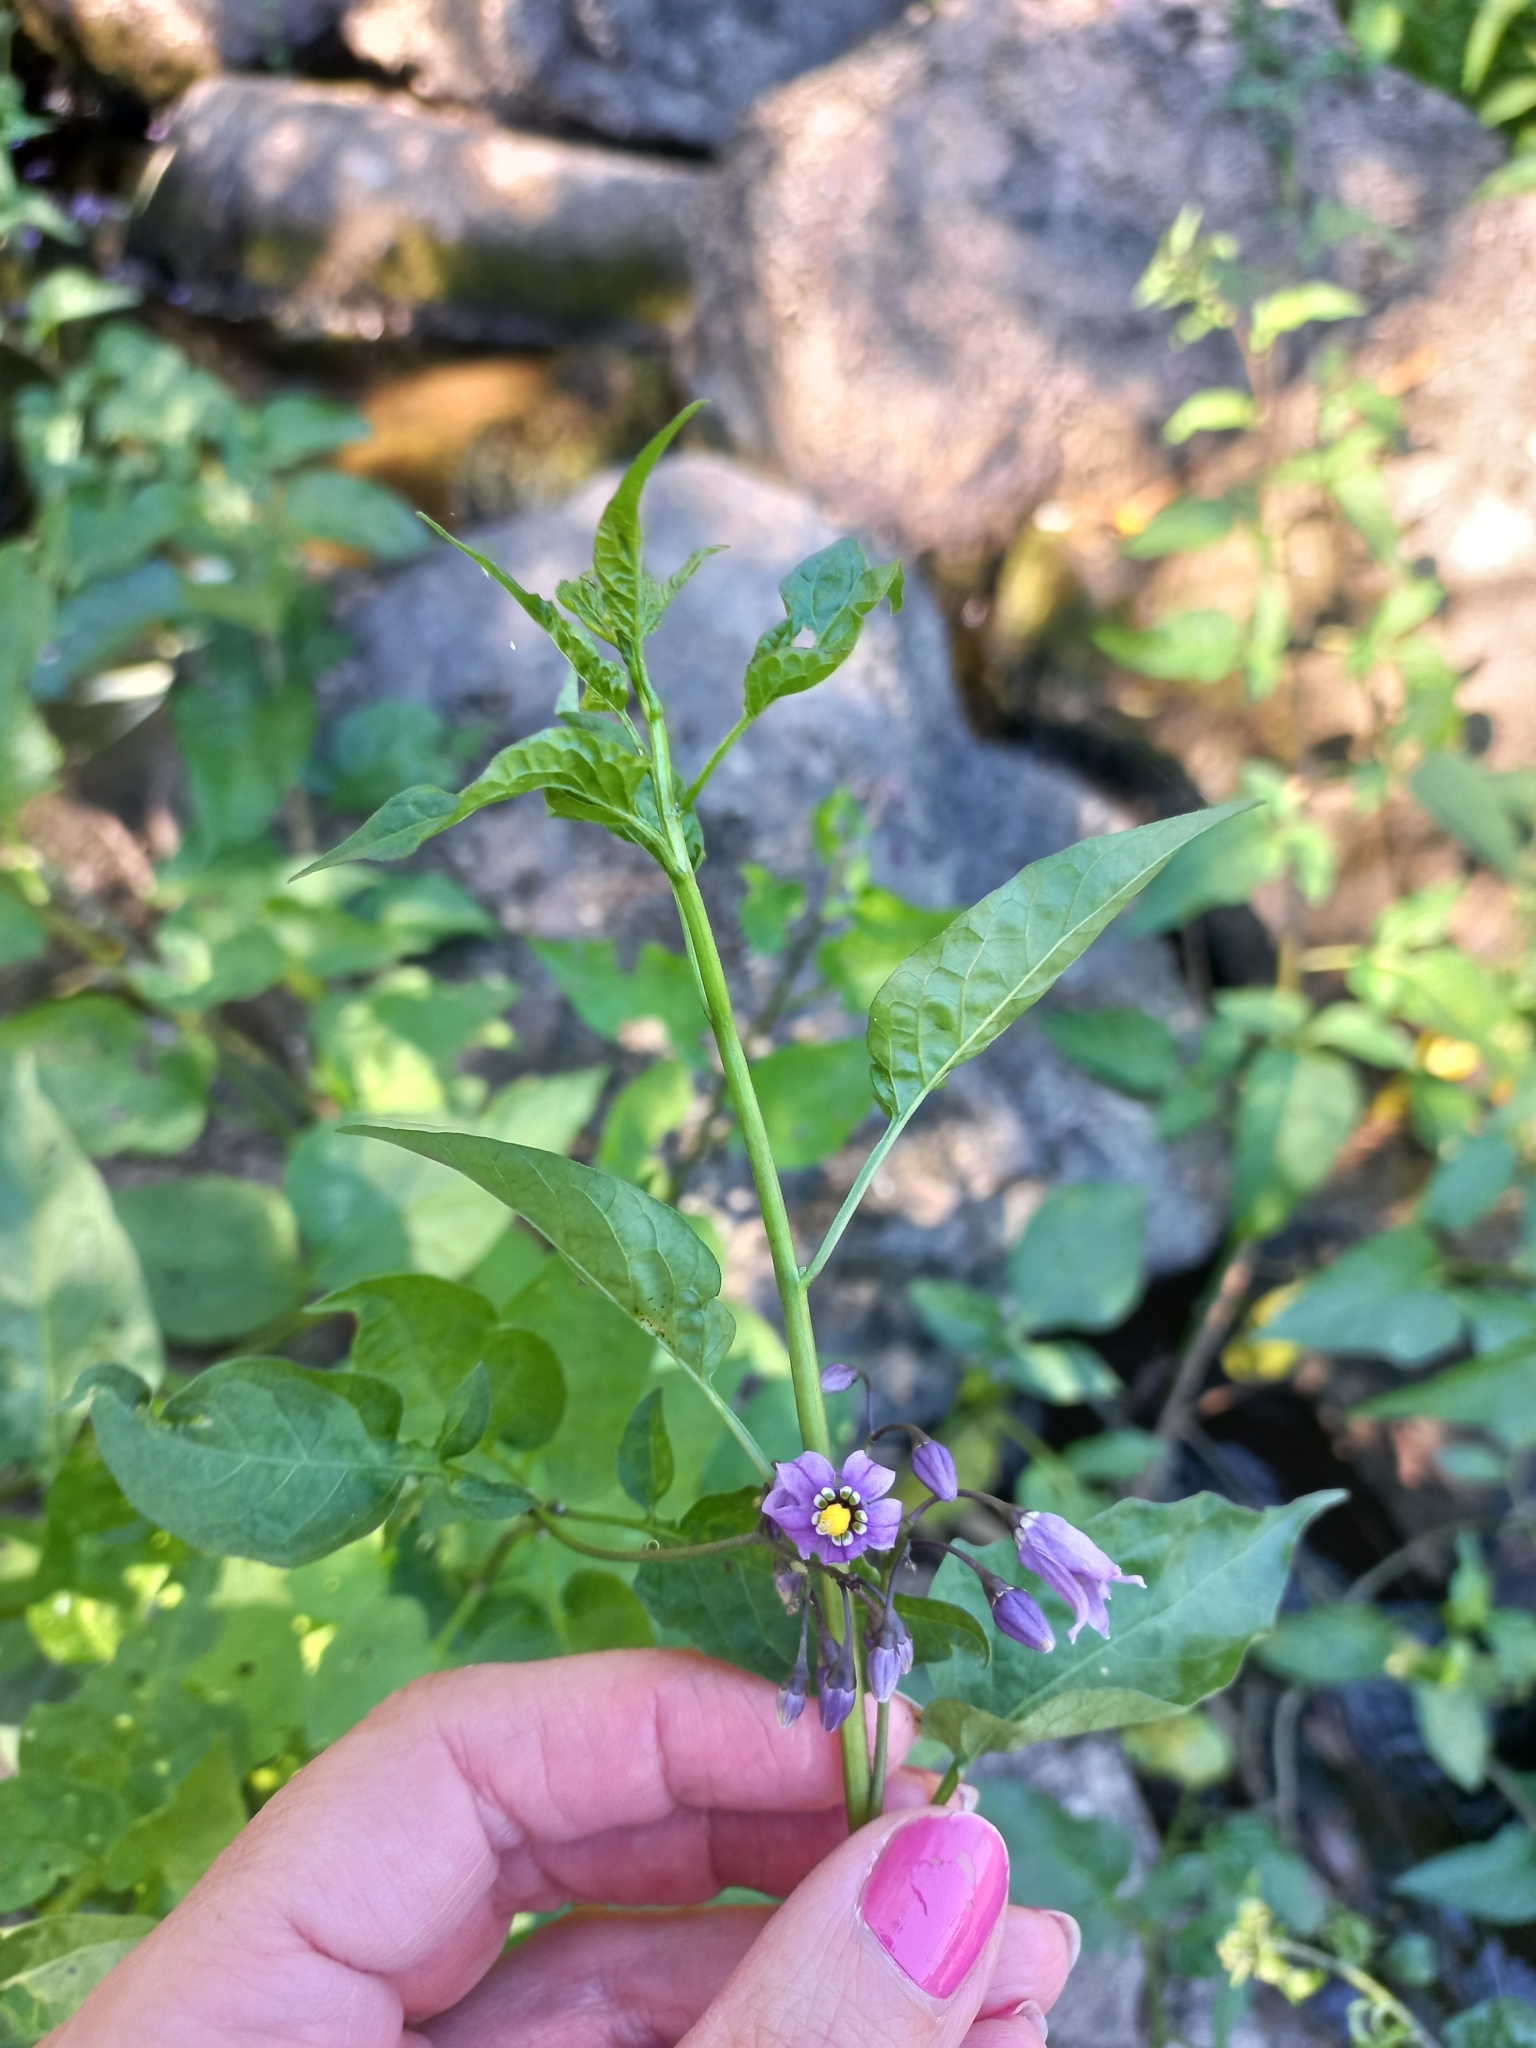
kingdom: Plantae
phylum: Tracheophyta
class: Magnoliopsida
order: Solanales
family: Solanaceae
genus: Solanum
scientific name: Solanum dulcamara
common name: Climbing nightshade
